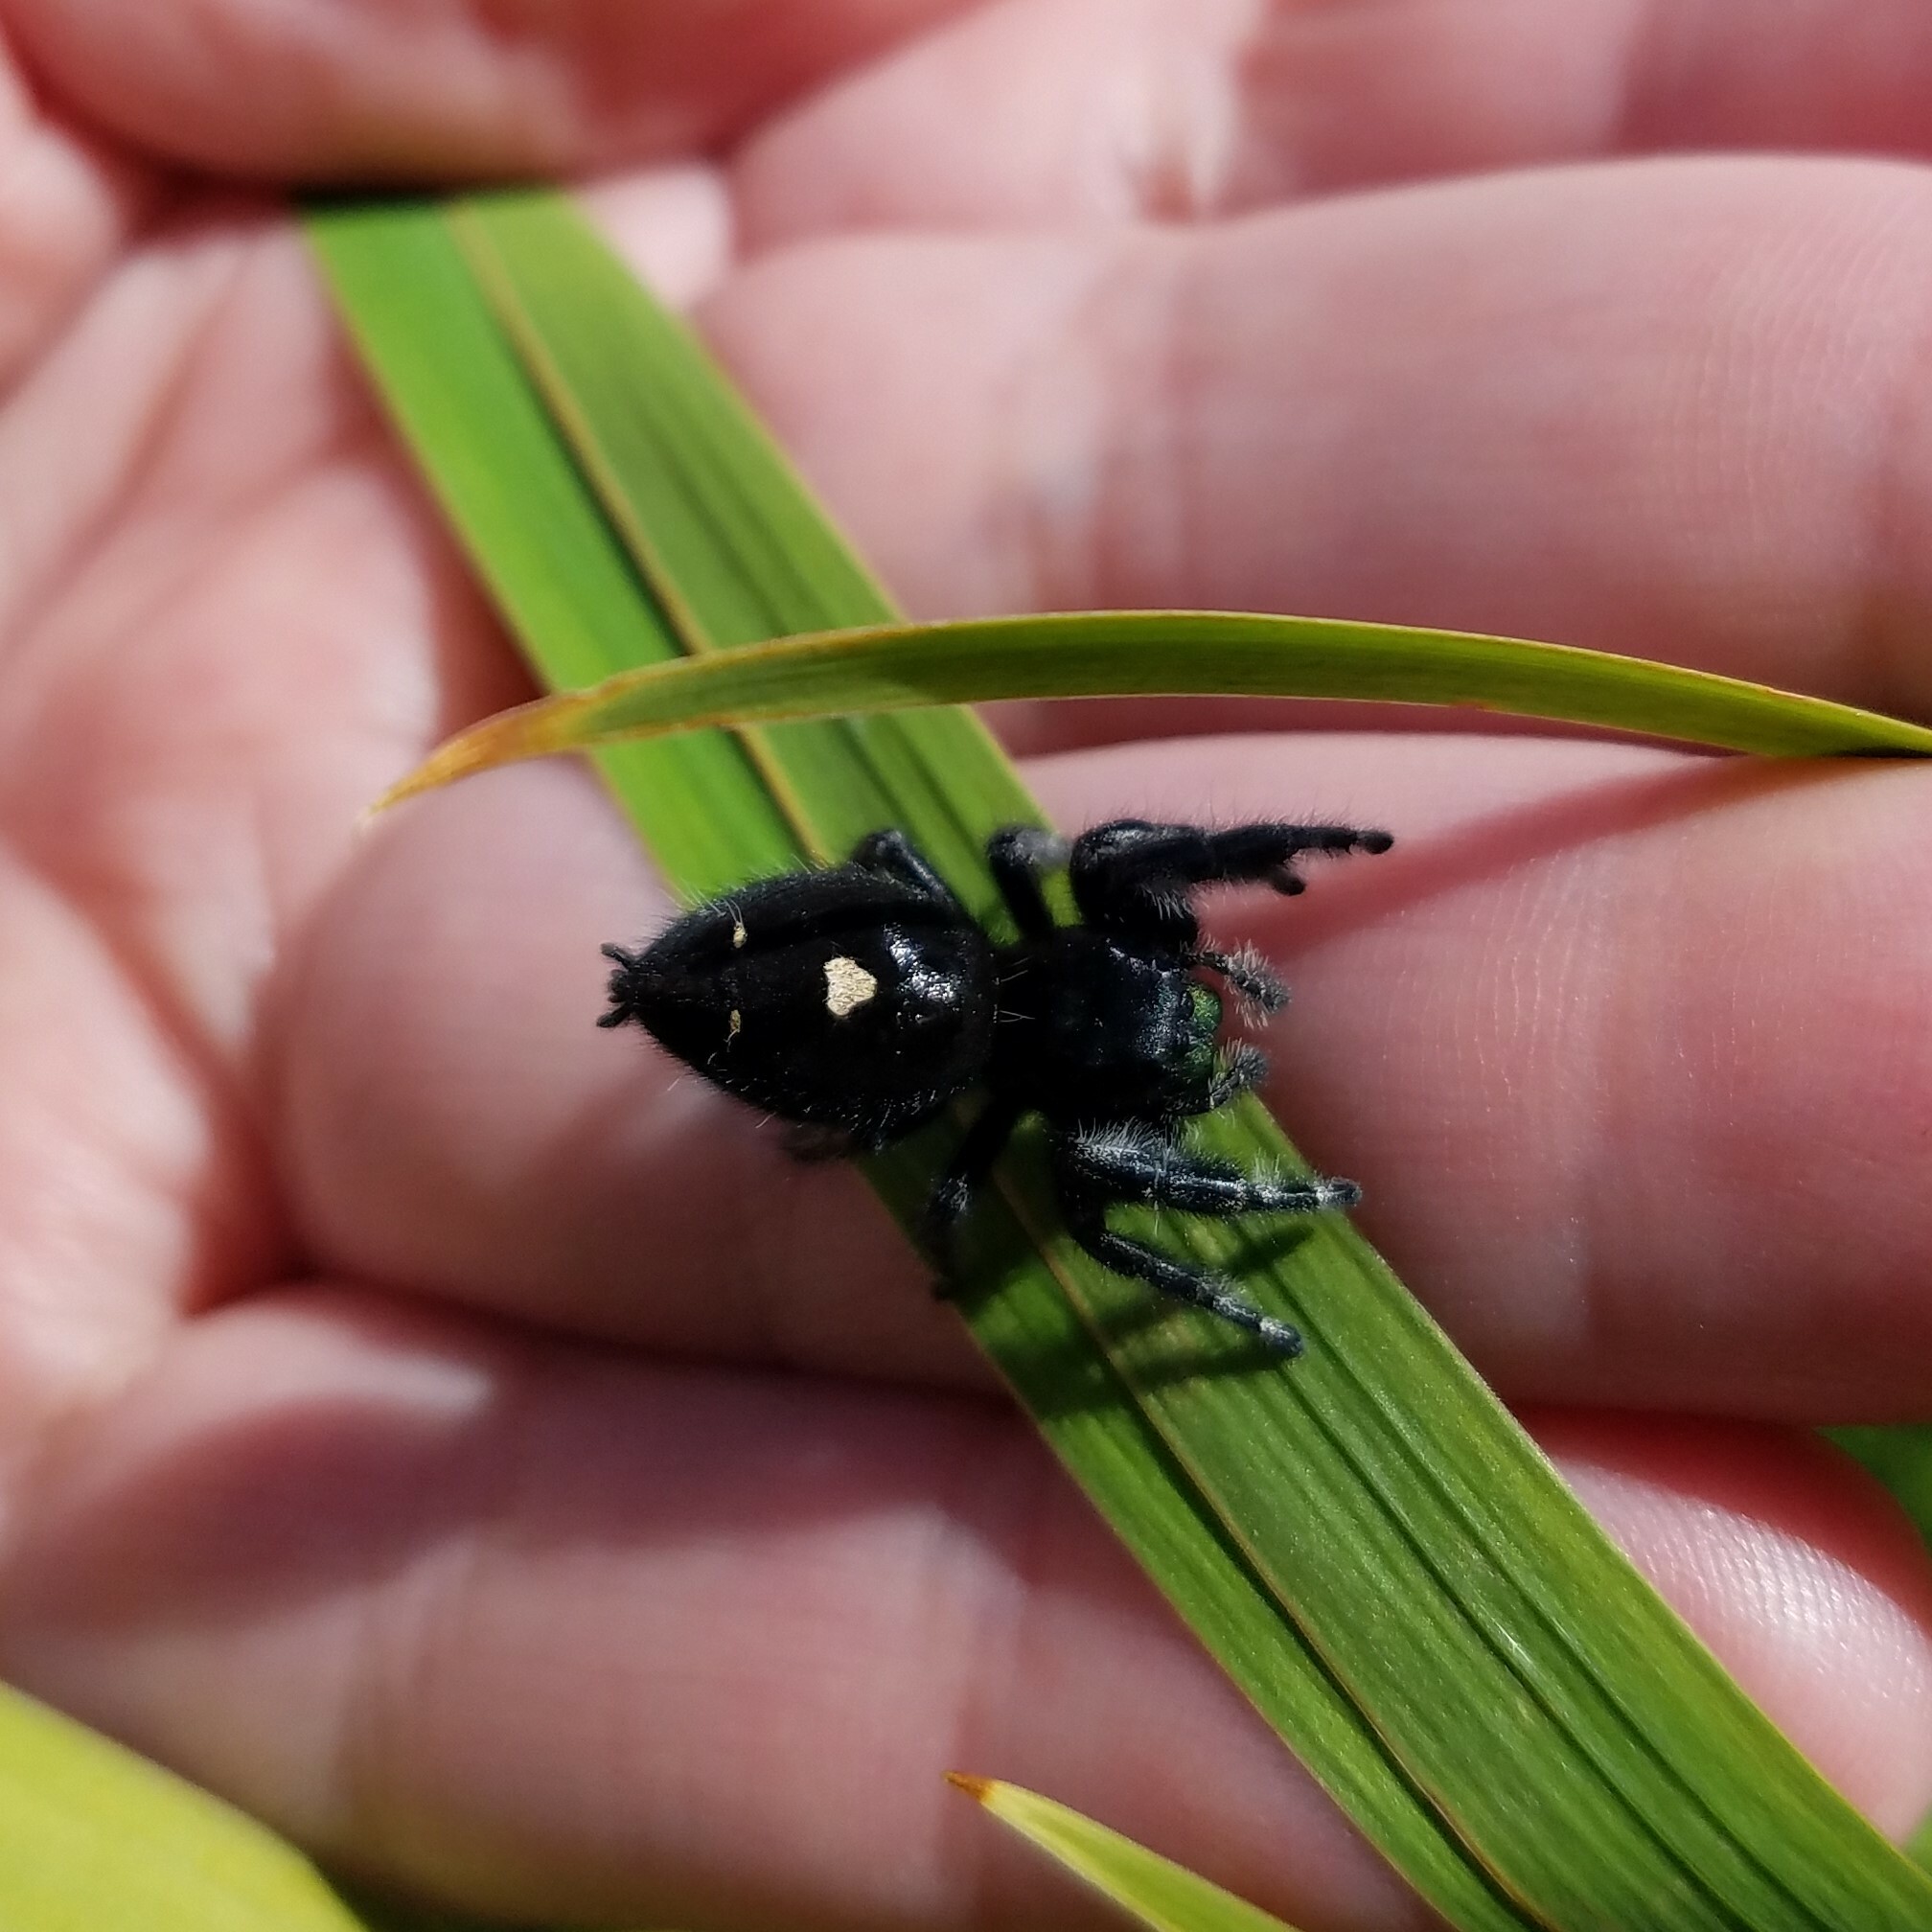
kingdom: Animalia
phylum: Arthropoda
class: Arachnida
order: Araneae
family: Salticidae
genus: Phidippus
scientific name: Phidippus audax
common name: Bold jumper
